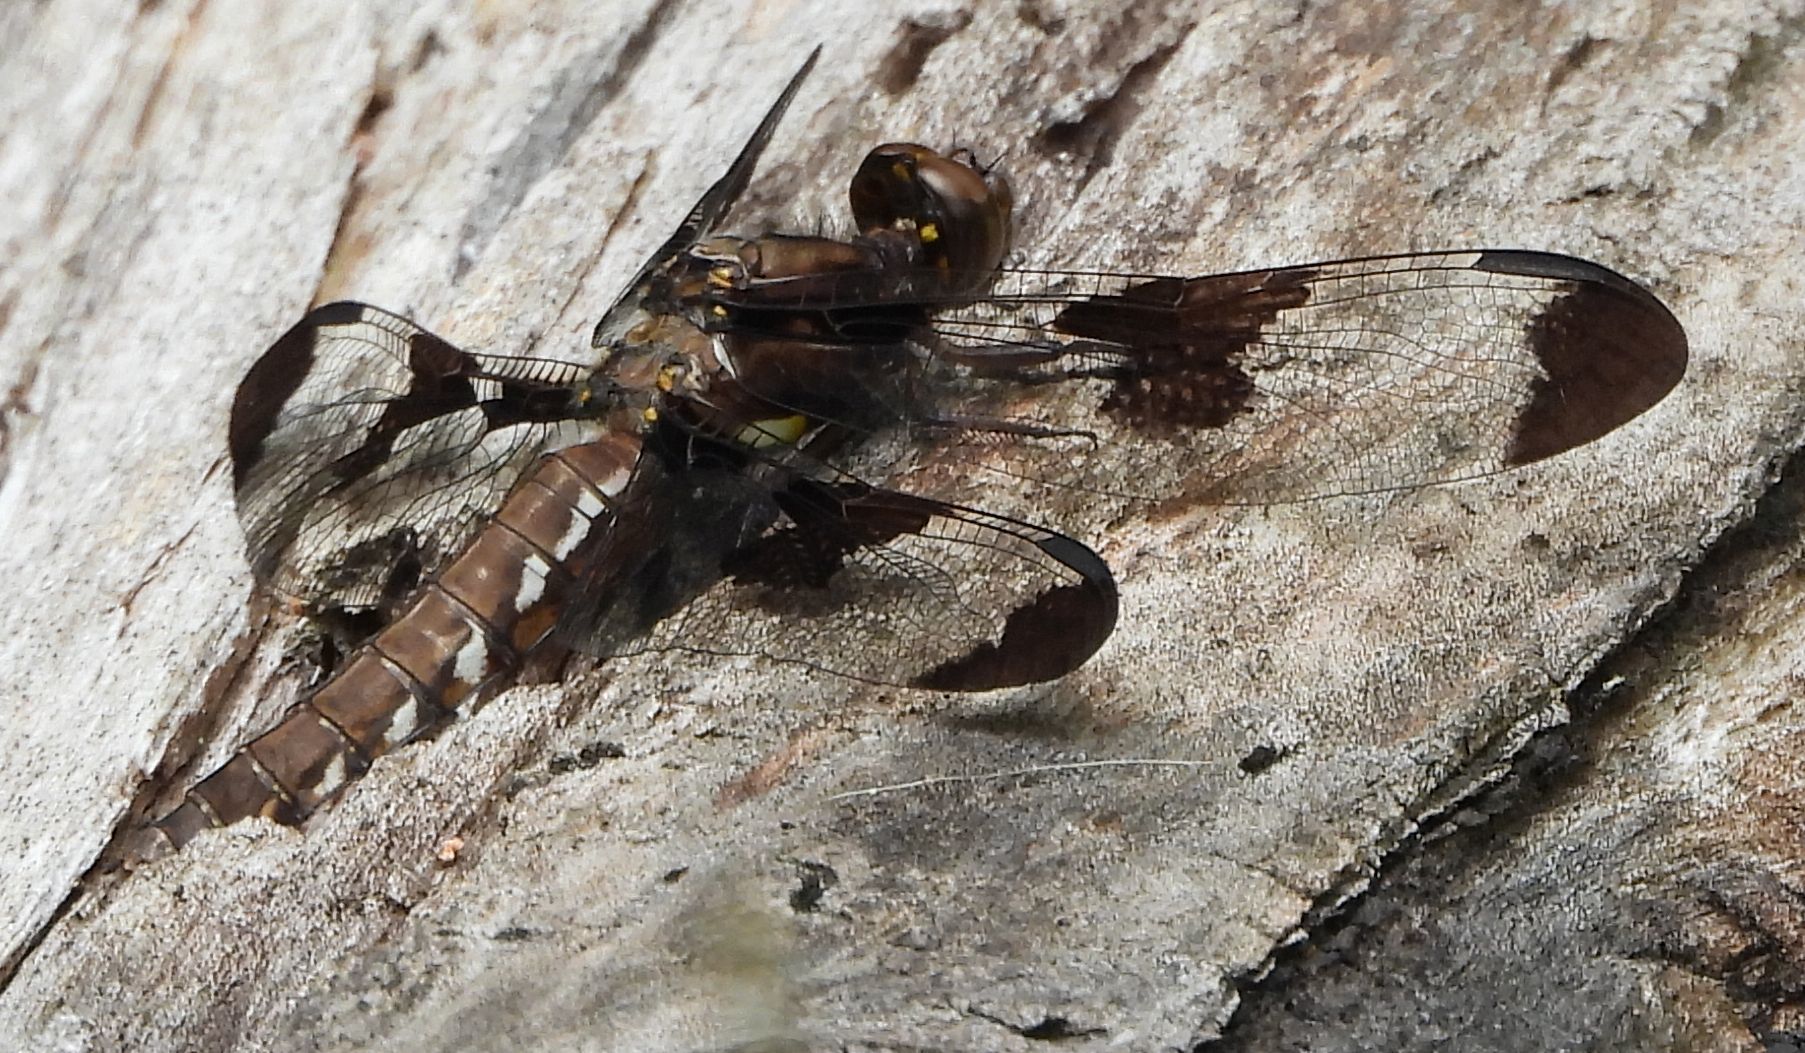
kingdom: Animalia
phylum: Arthropoda
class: Insecta
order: Odonata
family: Libellulidae
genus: Plathemis
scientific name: Plathemis lydia
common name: Common whitetail
